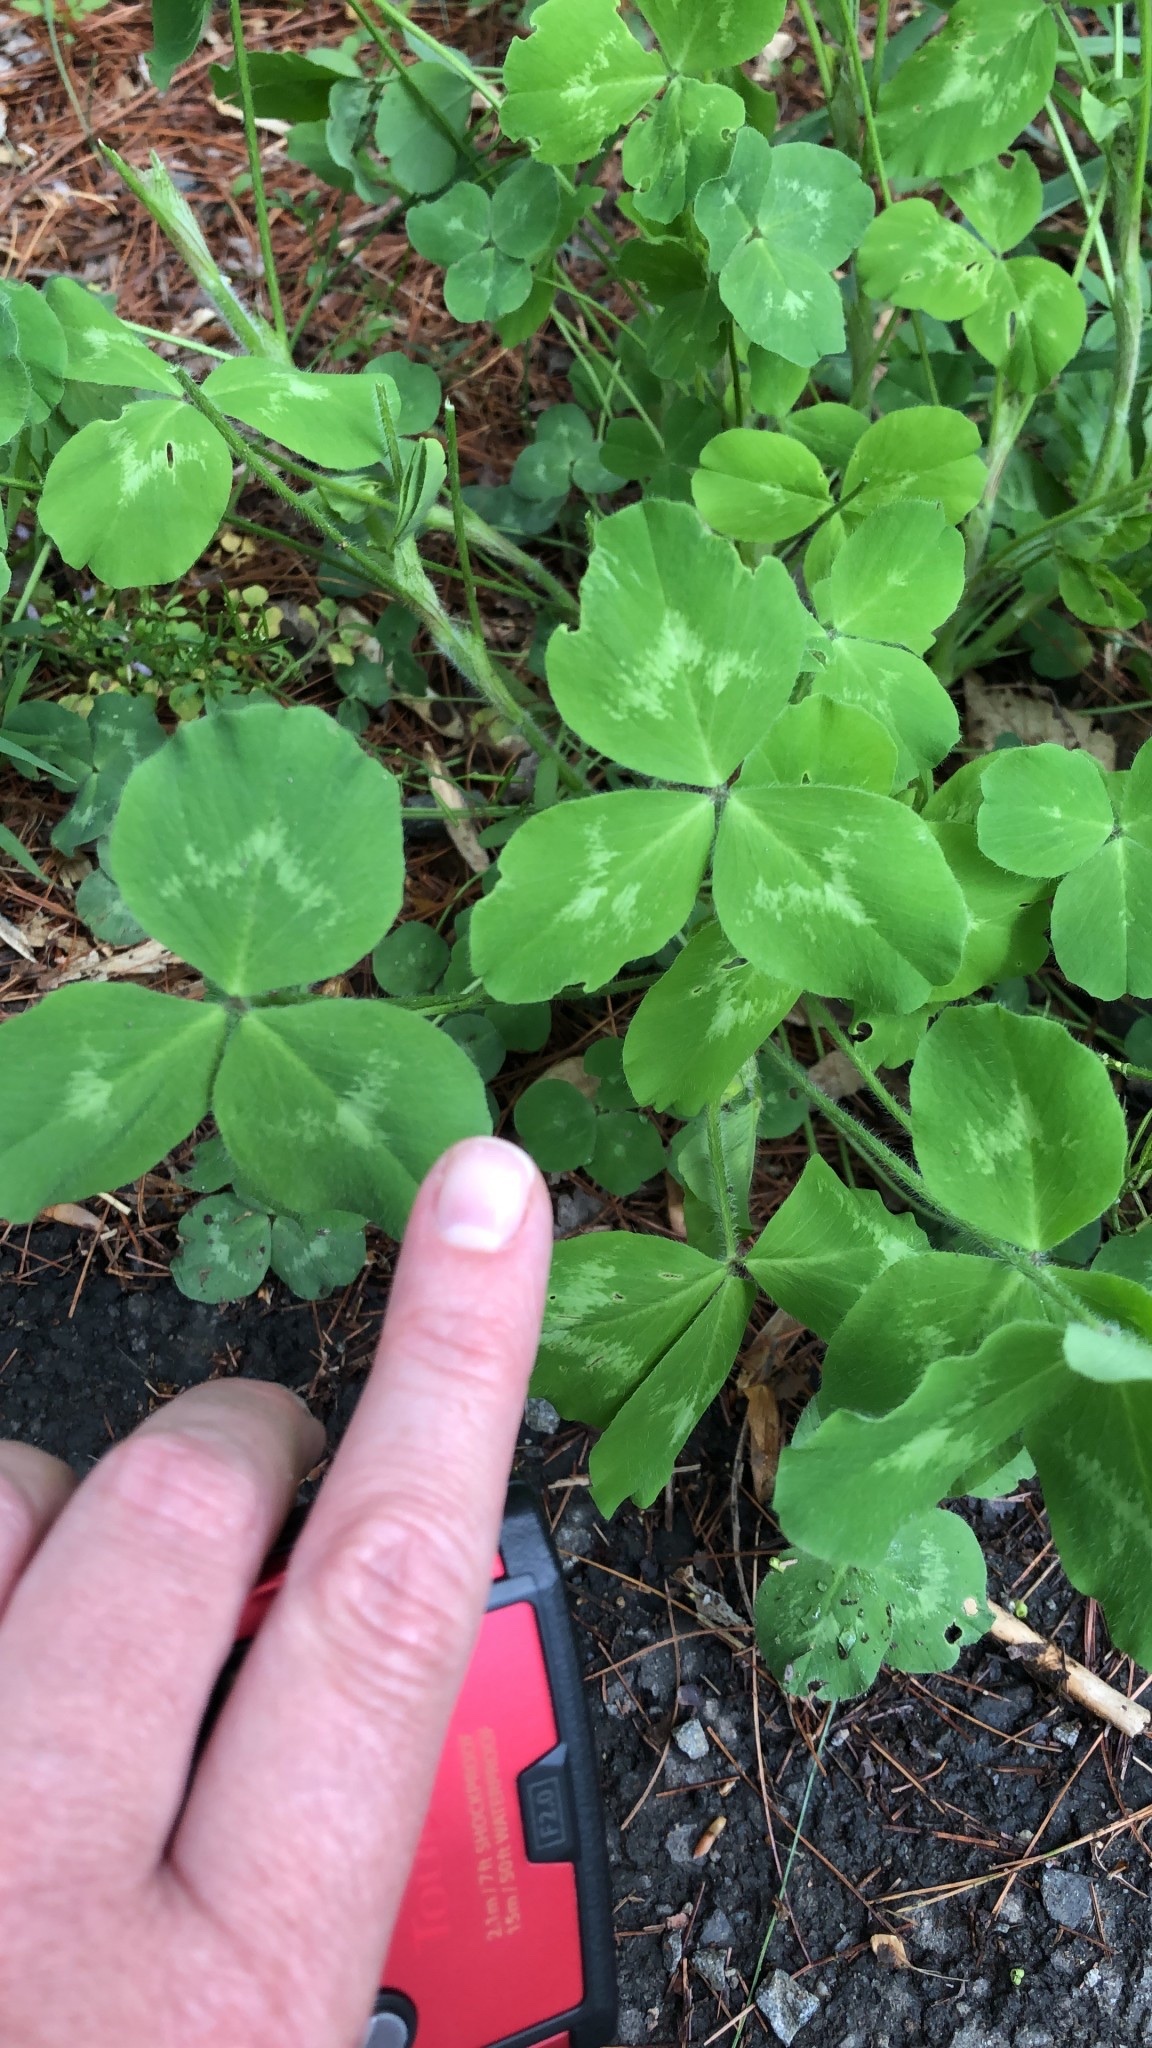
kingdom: Plantae
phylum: Tracheophyta
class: Magnoliopsida
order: Fabales
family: Fabaceae
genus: Trifolium
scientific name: Trifolium pratense
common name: Red clover
